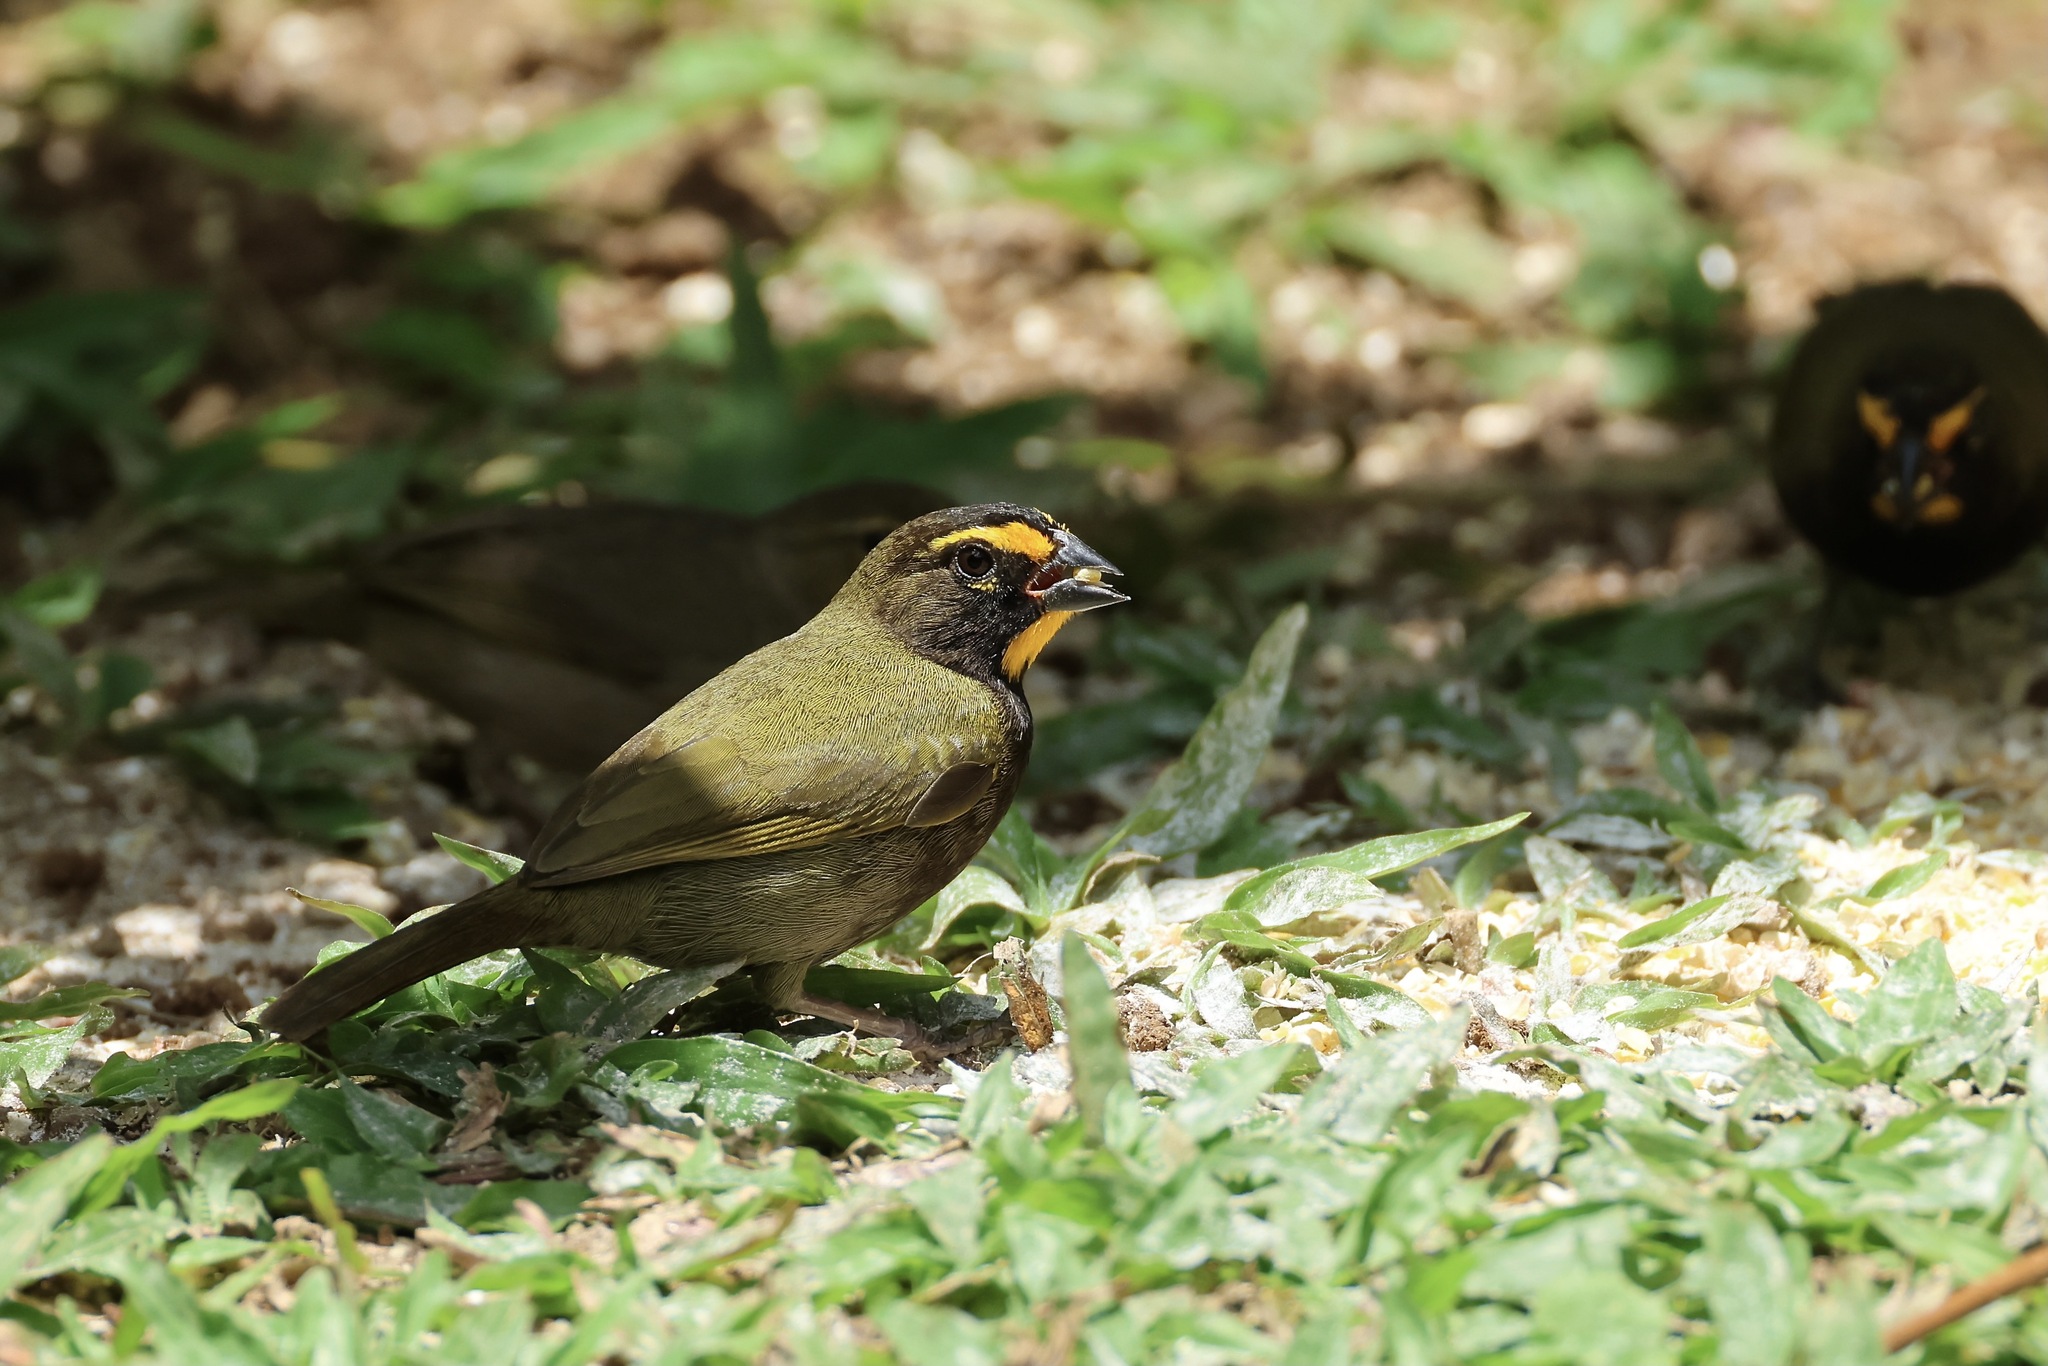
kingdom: Animalia
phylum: Chordata
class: Aves
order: Passeriformes
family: Thraupidae
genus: Tiaris
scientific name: Tiaris olivaceus
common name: Yellow-faced grassquit
